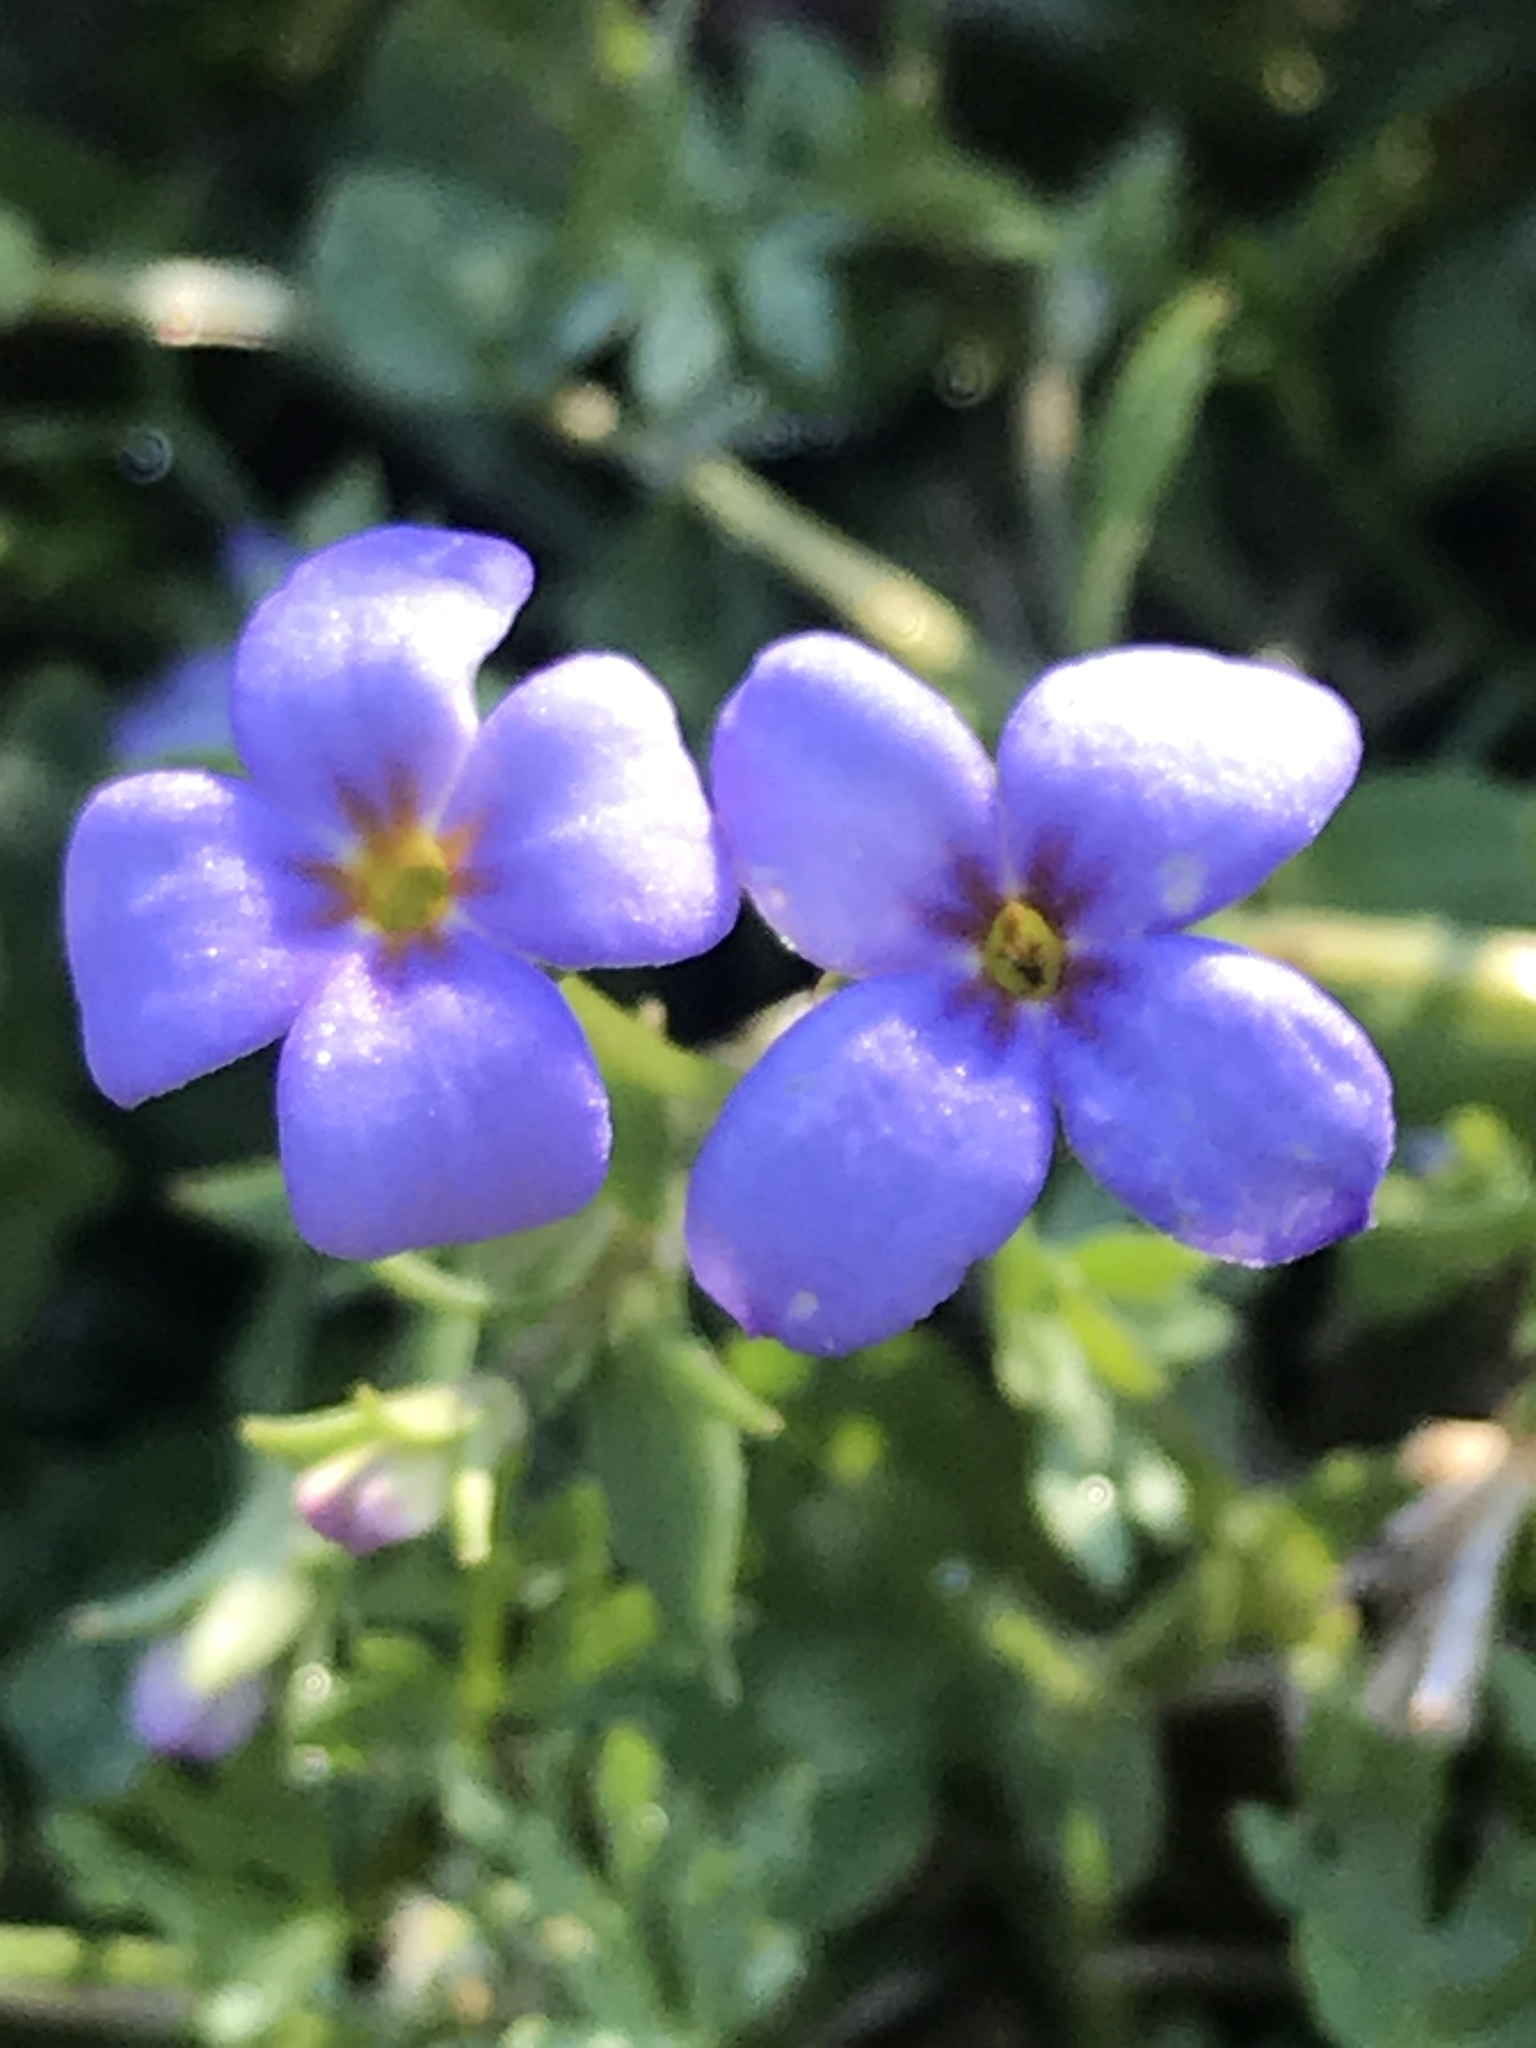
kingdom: Plantae
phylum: Tracheophyta
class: Magnoliopsida
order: Gentianales
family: Rubiaceae
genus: Houstonia
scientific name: Houstonia pusilla
